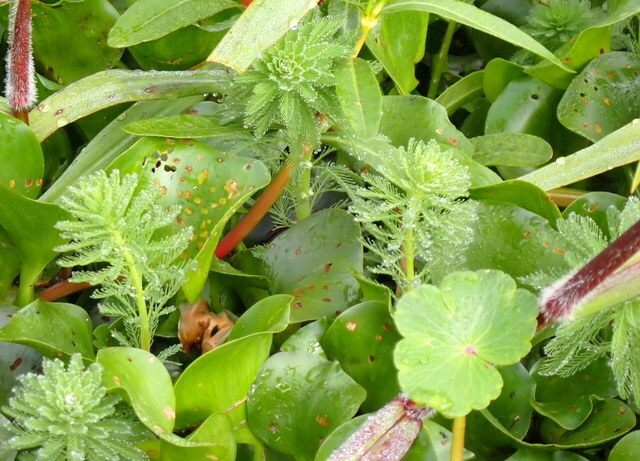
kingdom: Plantae
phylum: Tracheophyta
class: Magnoliopsida
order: Saxifragales
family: Haloragaceae
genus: Myriophyllum
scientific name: Myriophyllum aquaticum
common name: Parrot's feather
